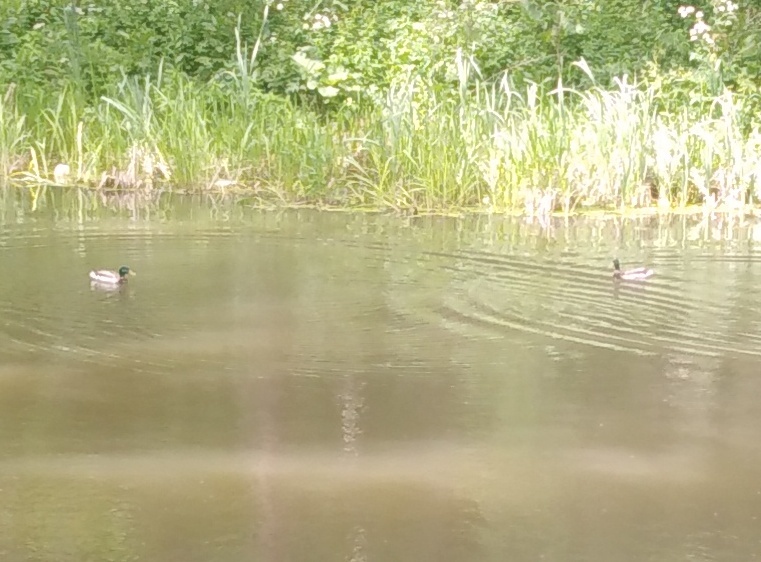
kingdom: Animalia
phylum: Chordata
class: Aves
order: Anseriformes
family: Anatidae
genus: Anas
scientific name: Anas platyrhynchos
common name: Mallard
